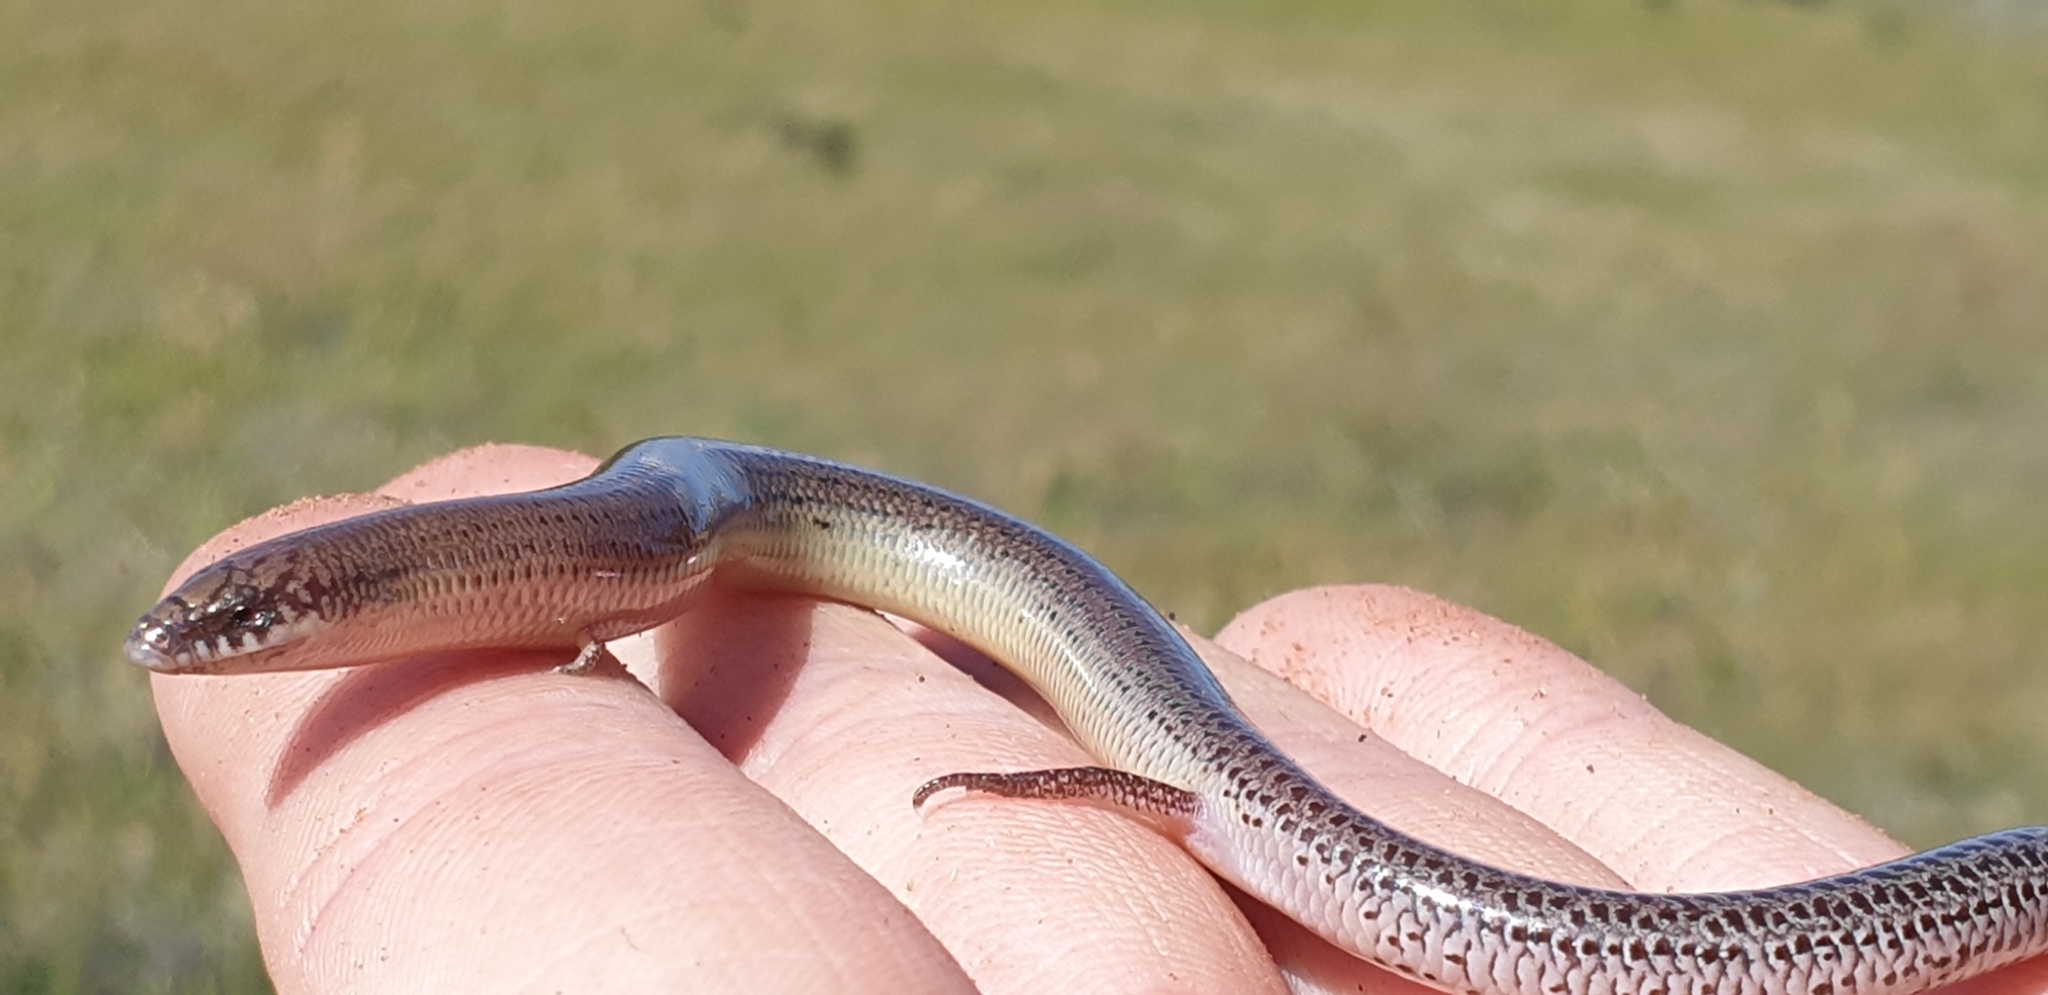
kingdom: Animalia
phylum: Chordata
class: Squamata
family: Scincidae
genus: Lerista
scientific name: Lerista punctatovittata
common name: Eastern robust slider
